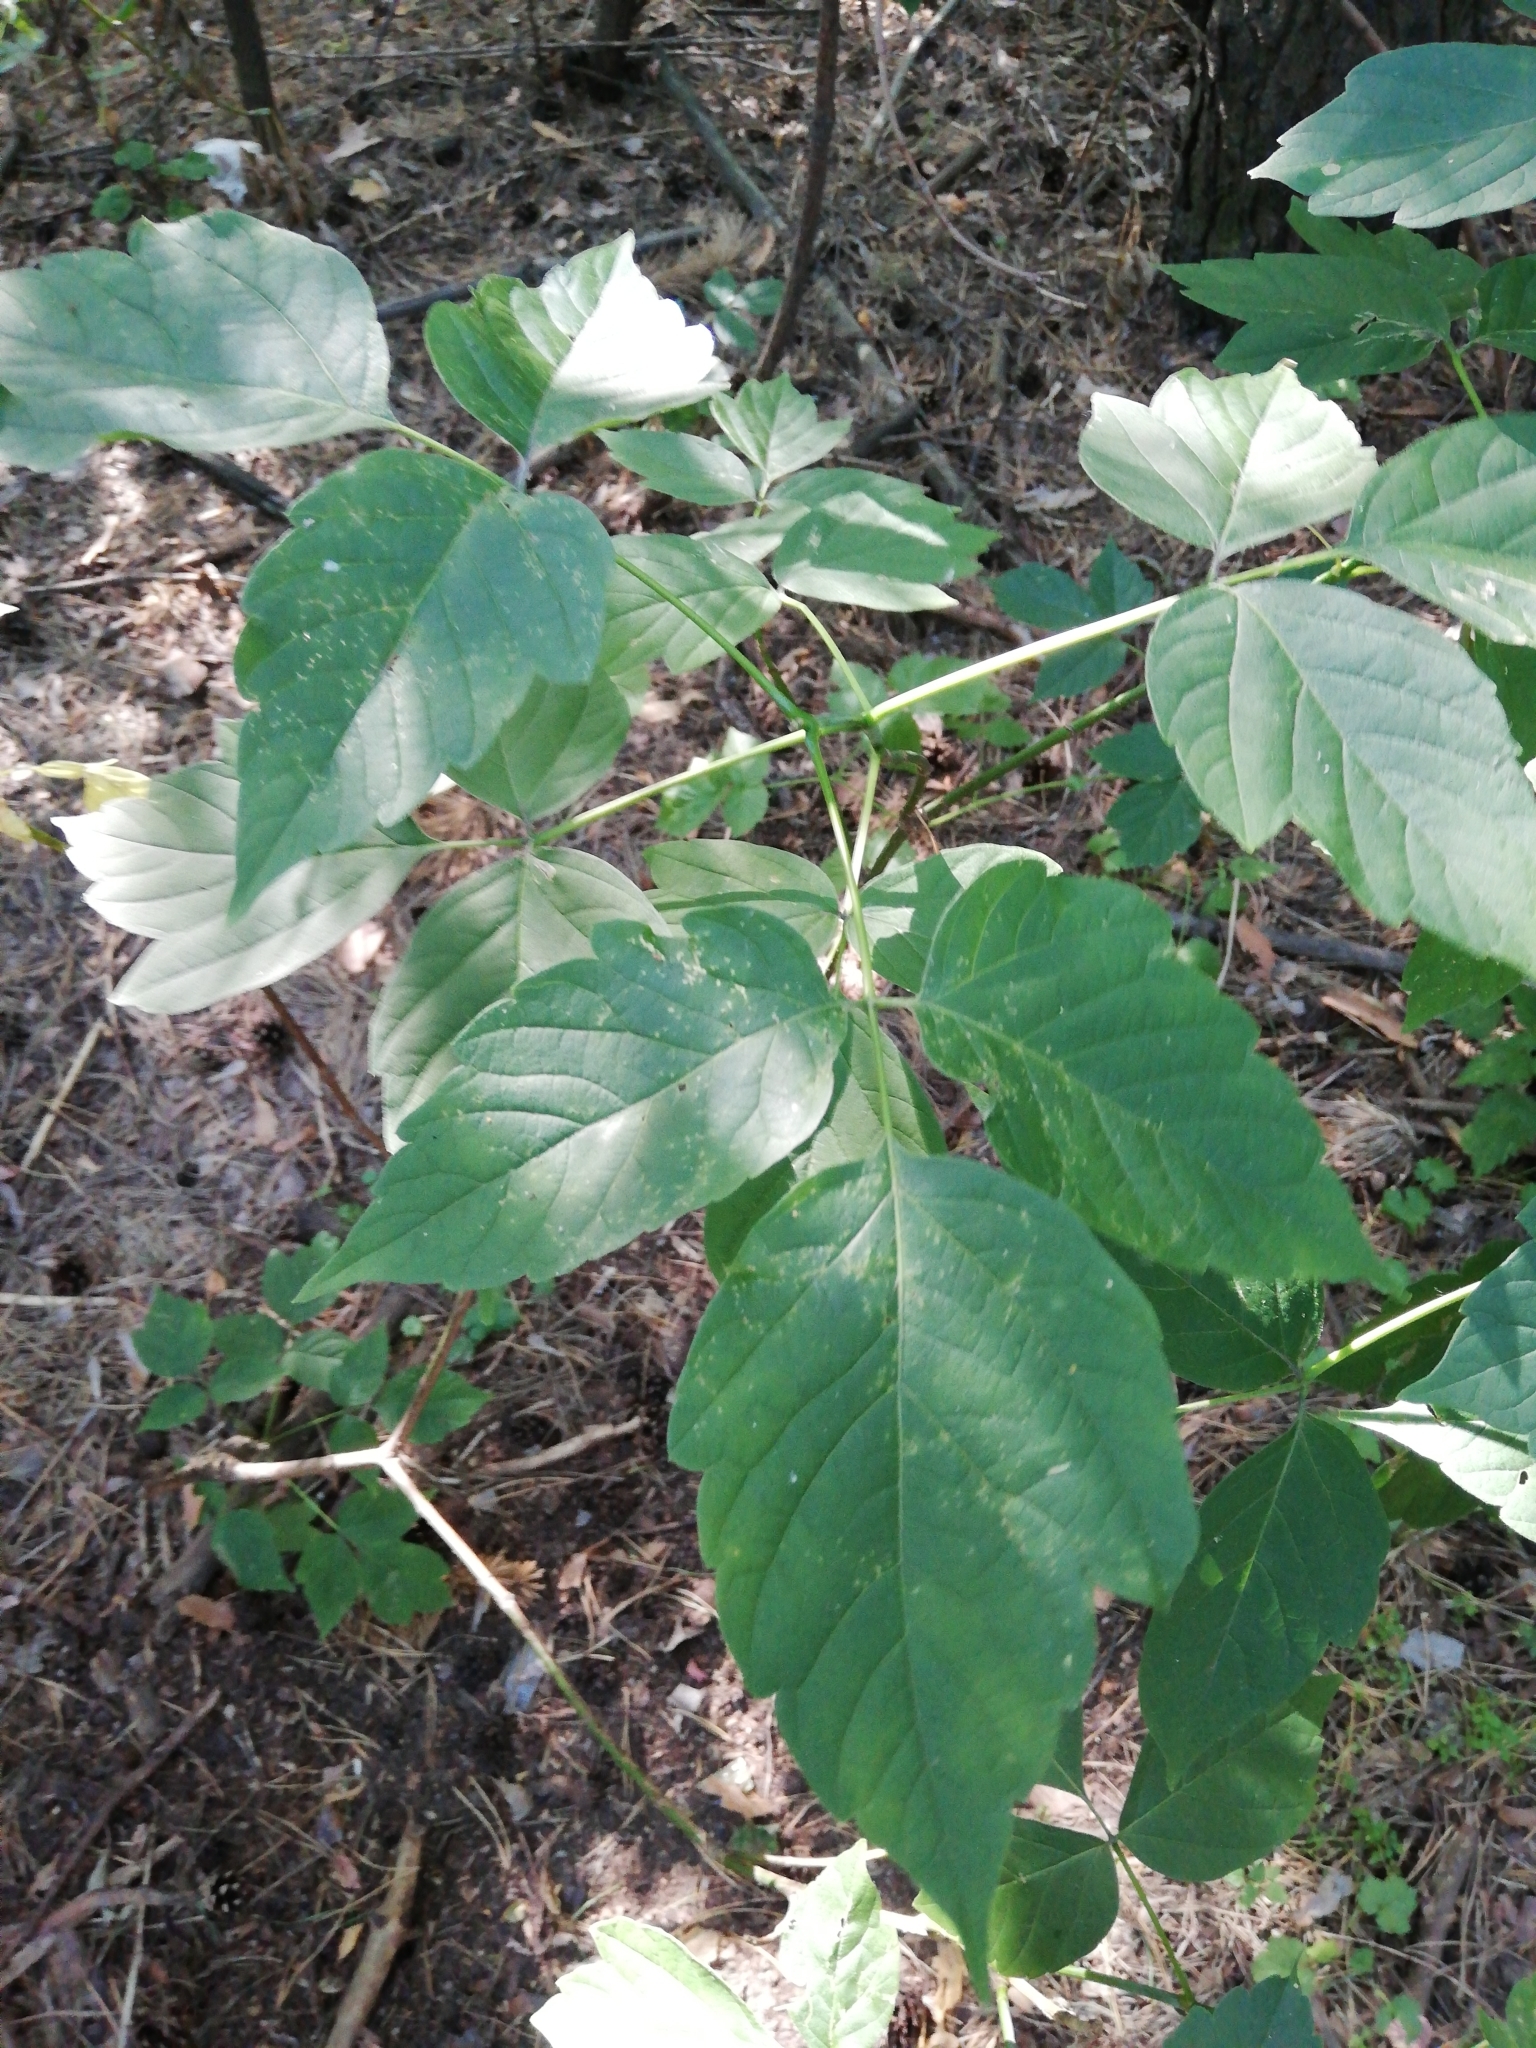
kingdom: Plantae
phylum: Tracheophyta
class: Magnoliopsida
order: Sapindales
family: Sapindaceae
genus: Acer
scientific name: Acer negundo
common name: Ashleaf maple
